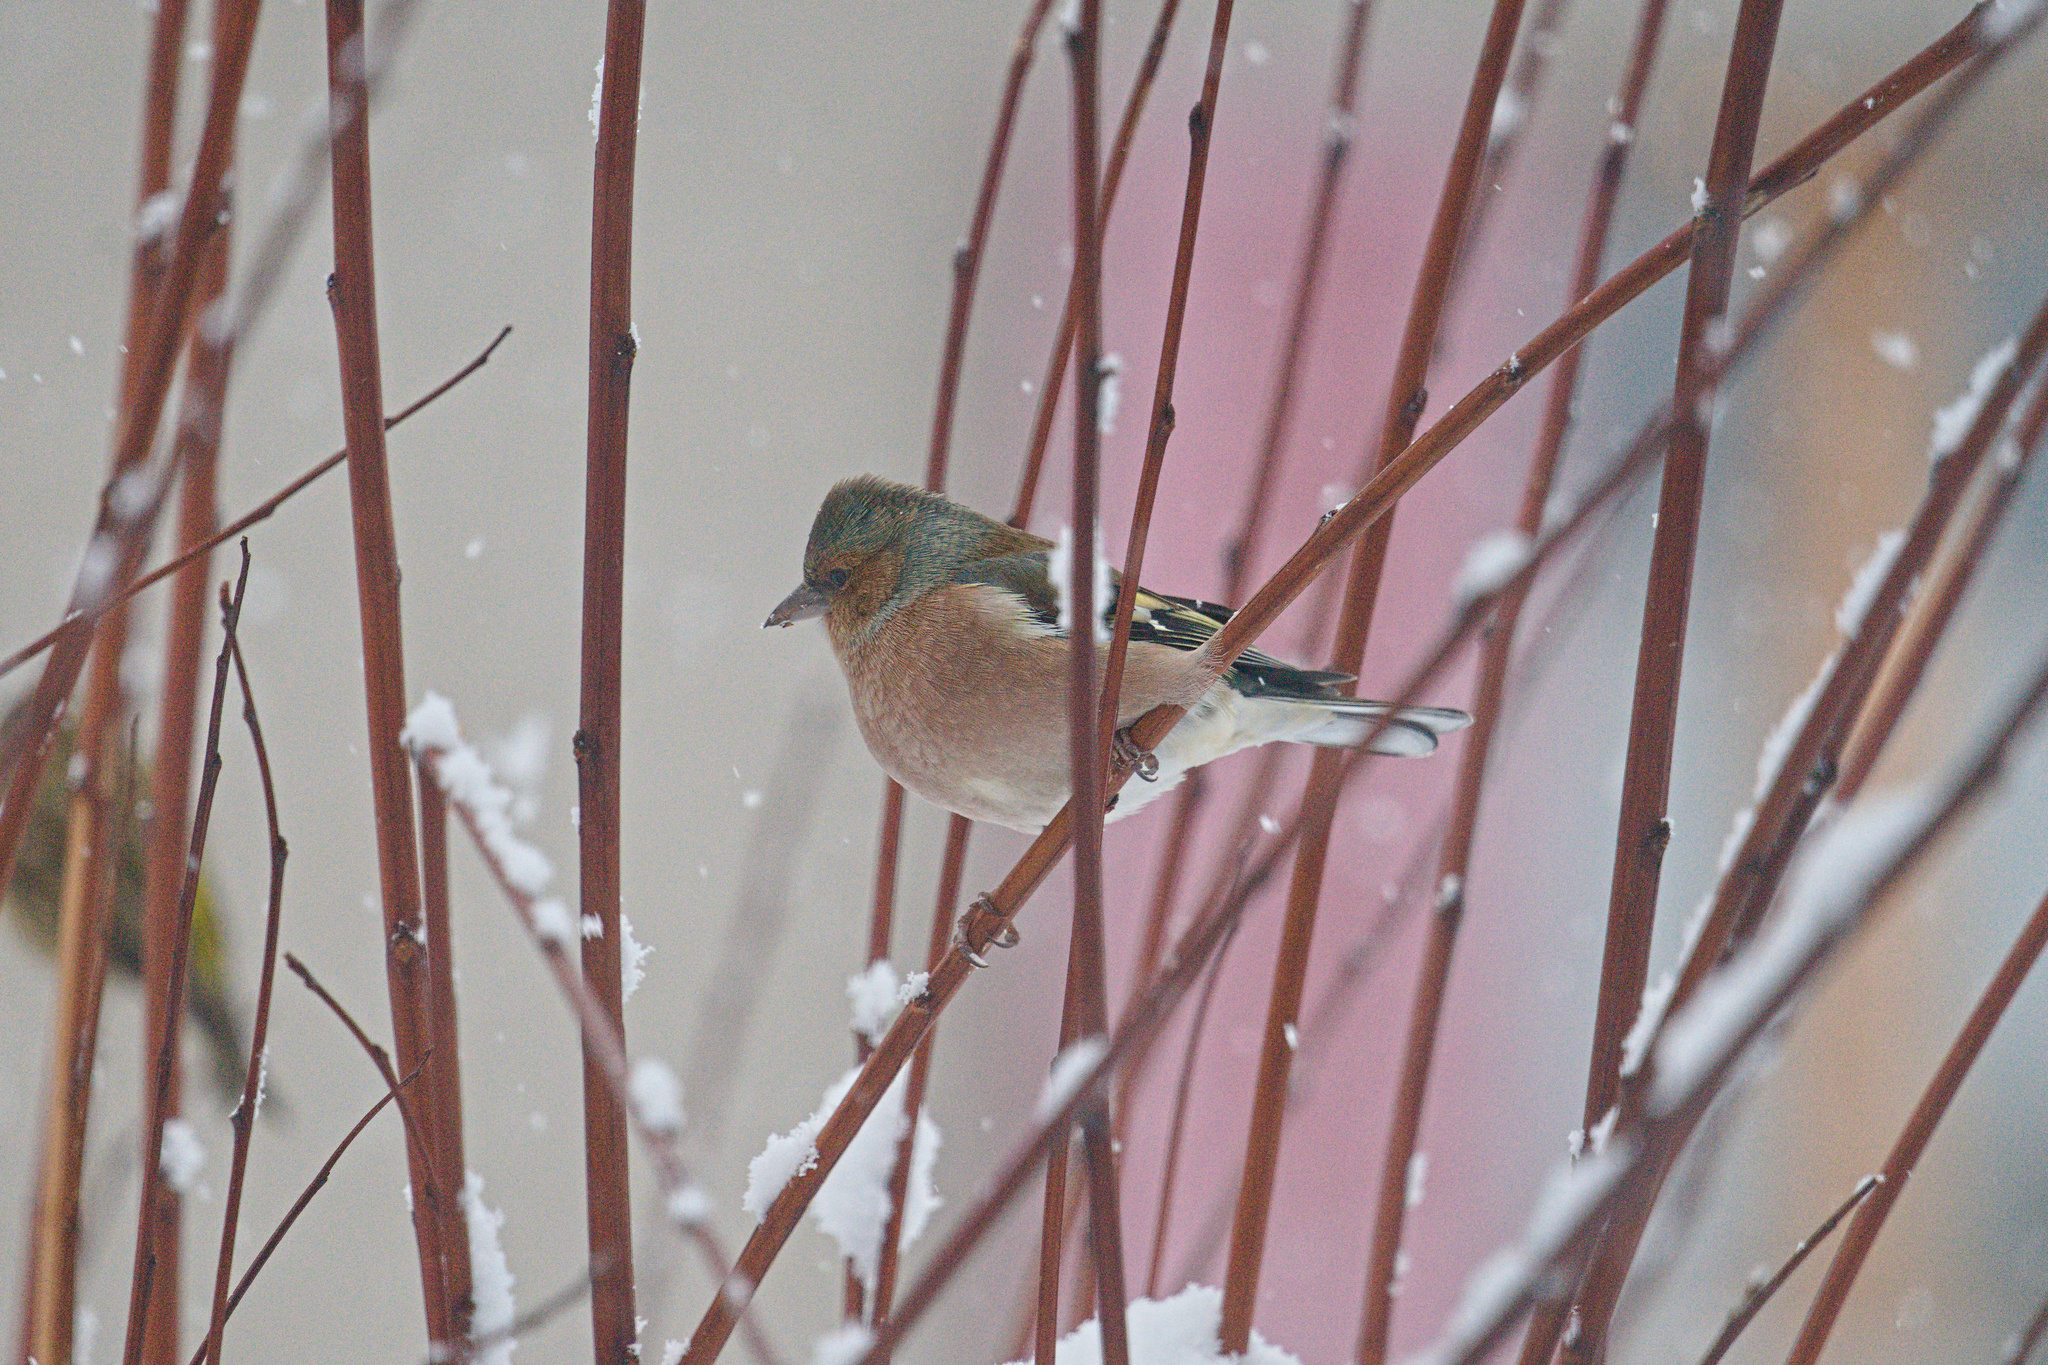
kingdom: Animalia
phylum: Chordata
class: Aves
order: Passeriformes
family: Fringillidae
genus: Fringilla
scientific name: Fringilla coelebs
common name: Common chaffinch
